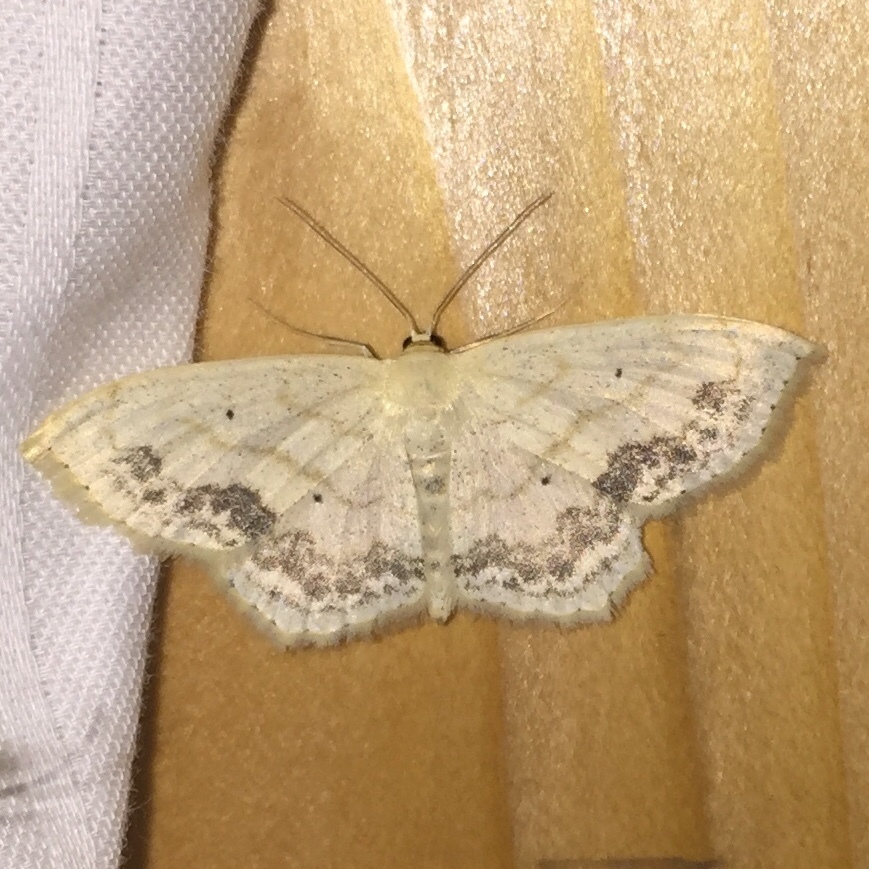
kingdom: Animalia
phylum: Arthropoda
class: Insecta
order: Lepidoptera
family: Geometridae
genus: Scopula
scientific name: Scopula limboundata
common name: Large lace border
